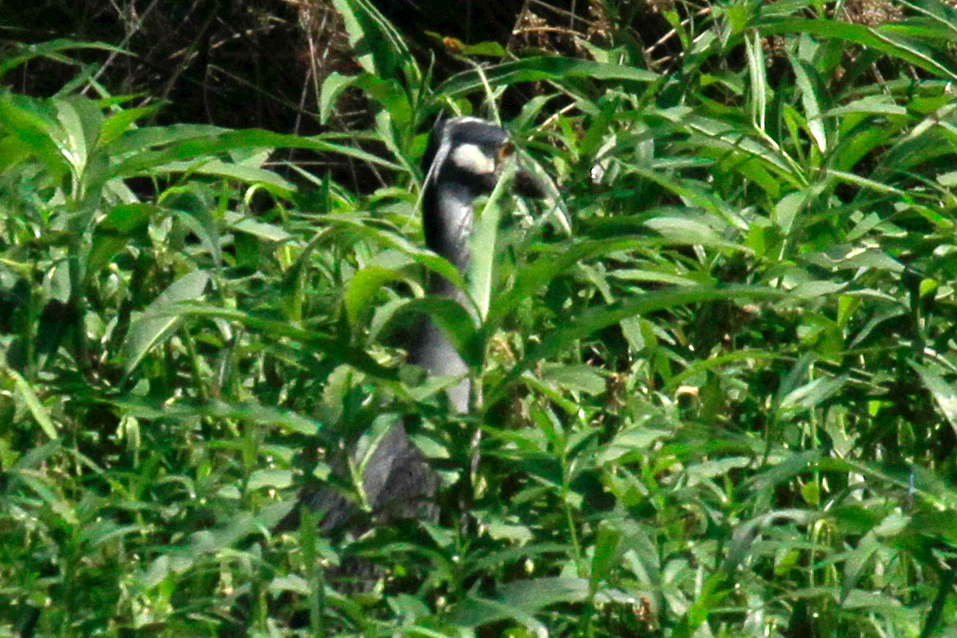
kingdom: Animalia
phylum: Chordata
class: Aves
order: Pelecaniformes
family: Ardeidae
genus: Nyctanassa
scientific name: Nyctanassa violacea
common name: Yellow-crowned night heron
